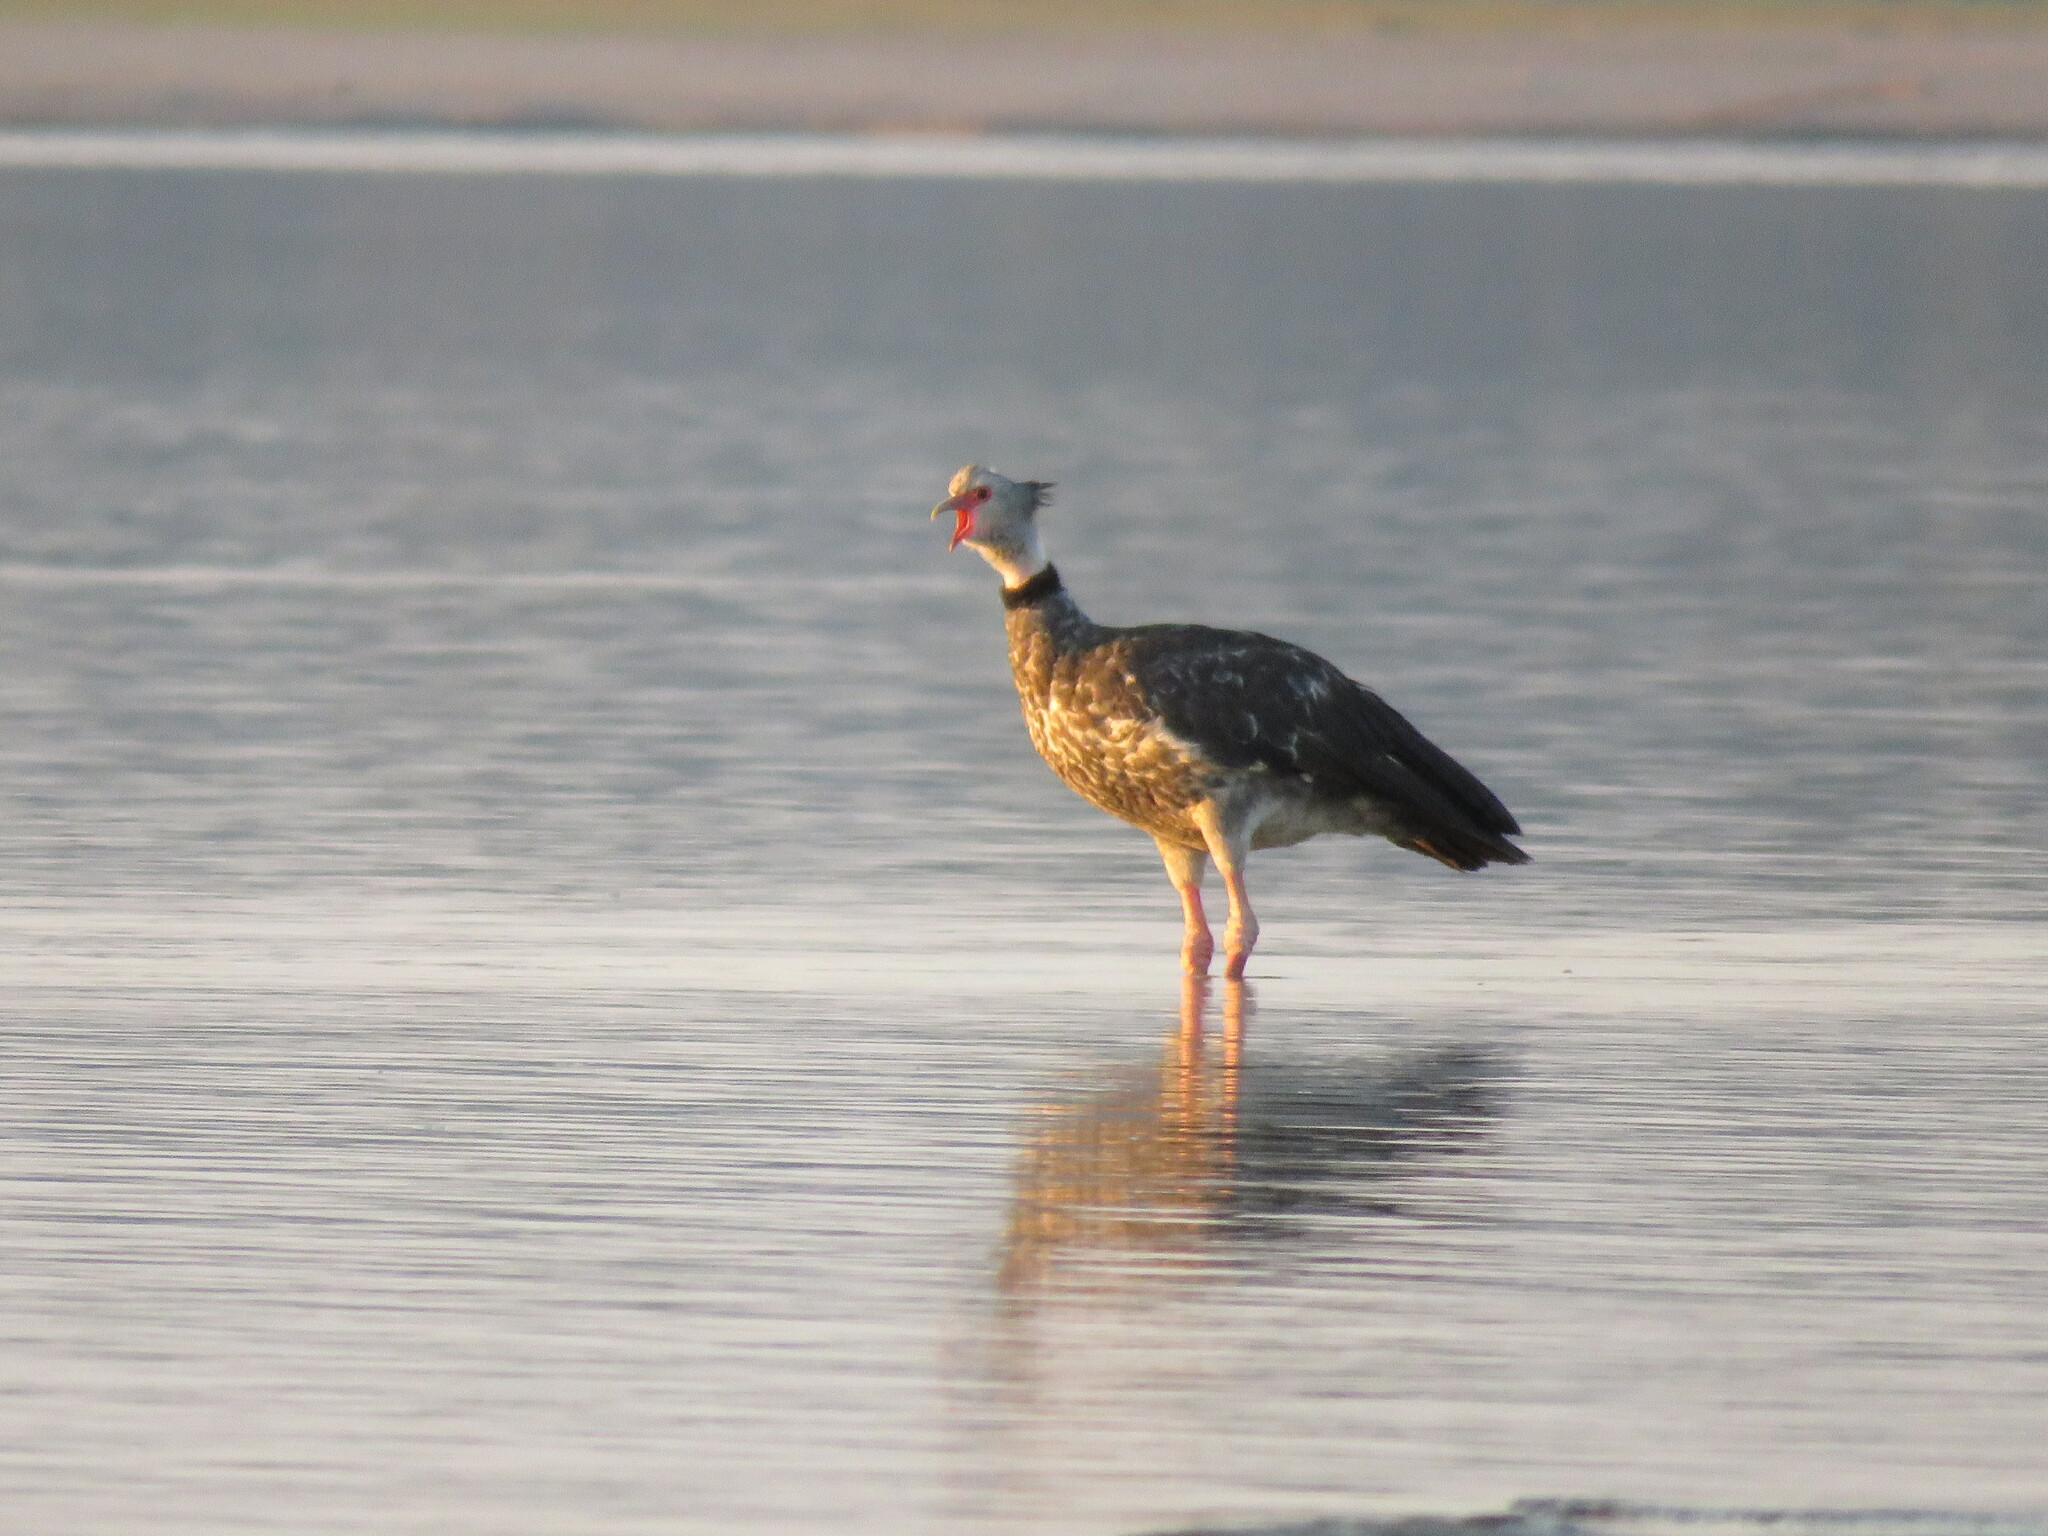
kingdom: Animalia
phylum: Chordata
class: Aves
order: Anseriformes
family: Anhimidae
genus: Chauna
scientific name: Chauna torquata
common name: Southern screamer
